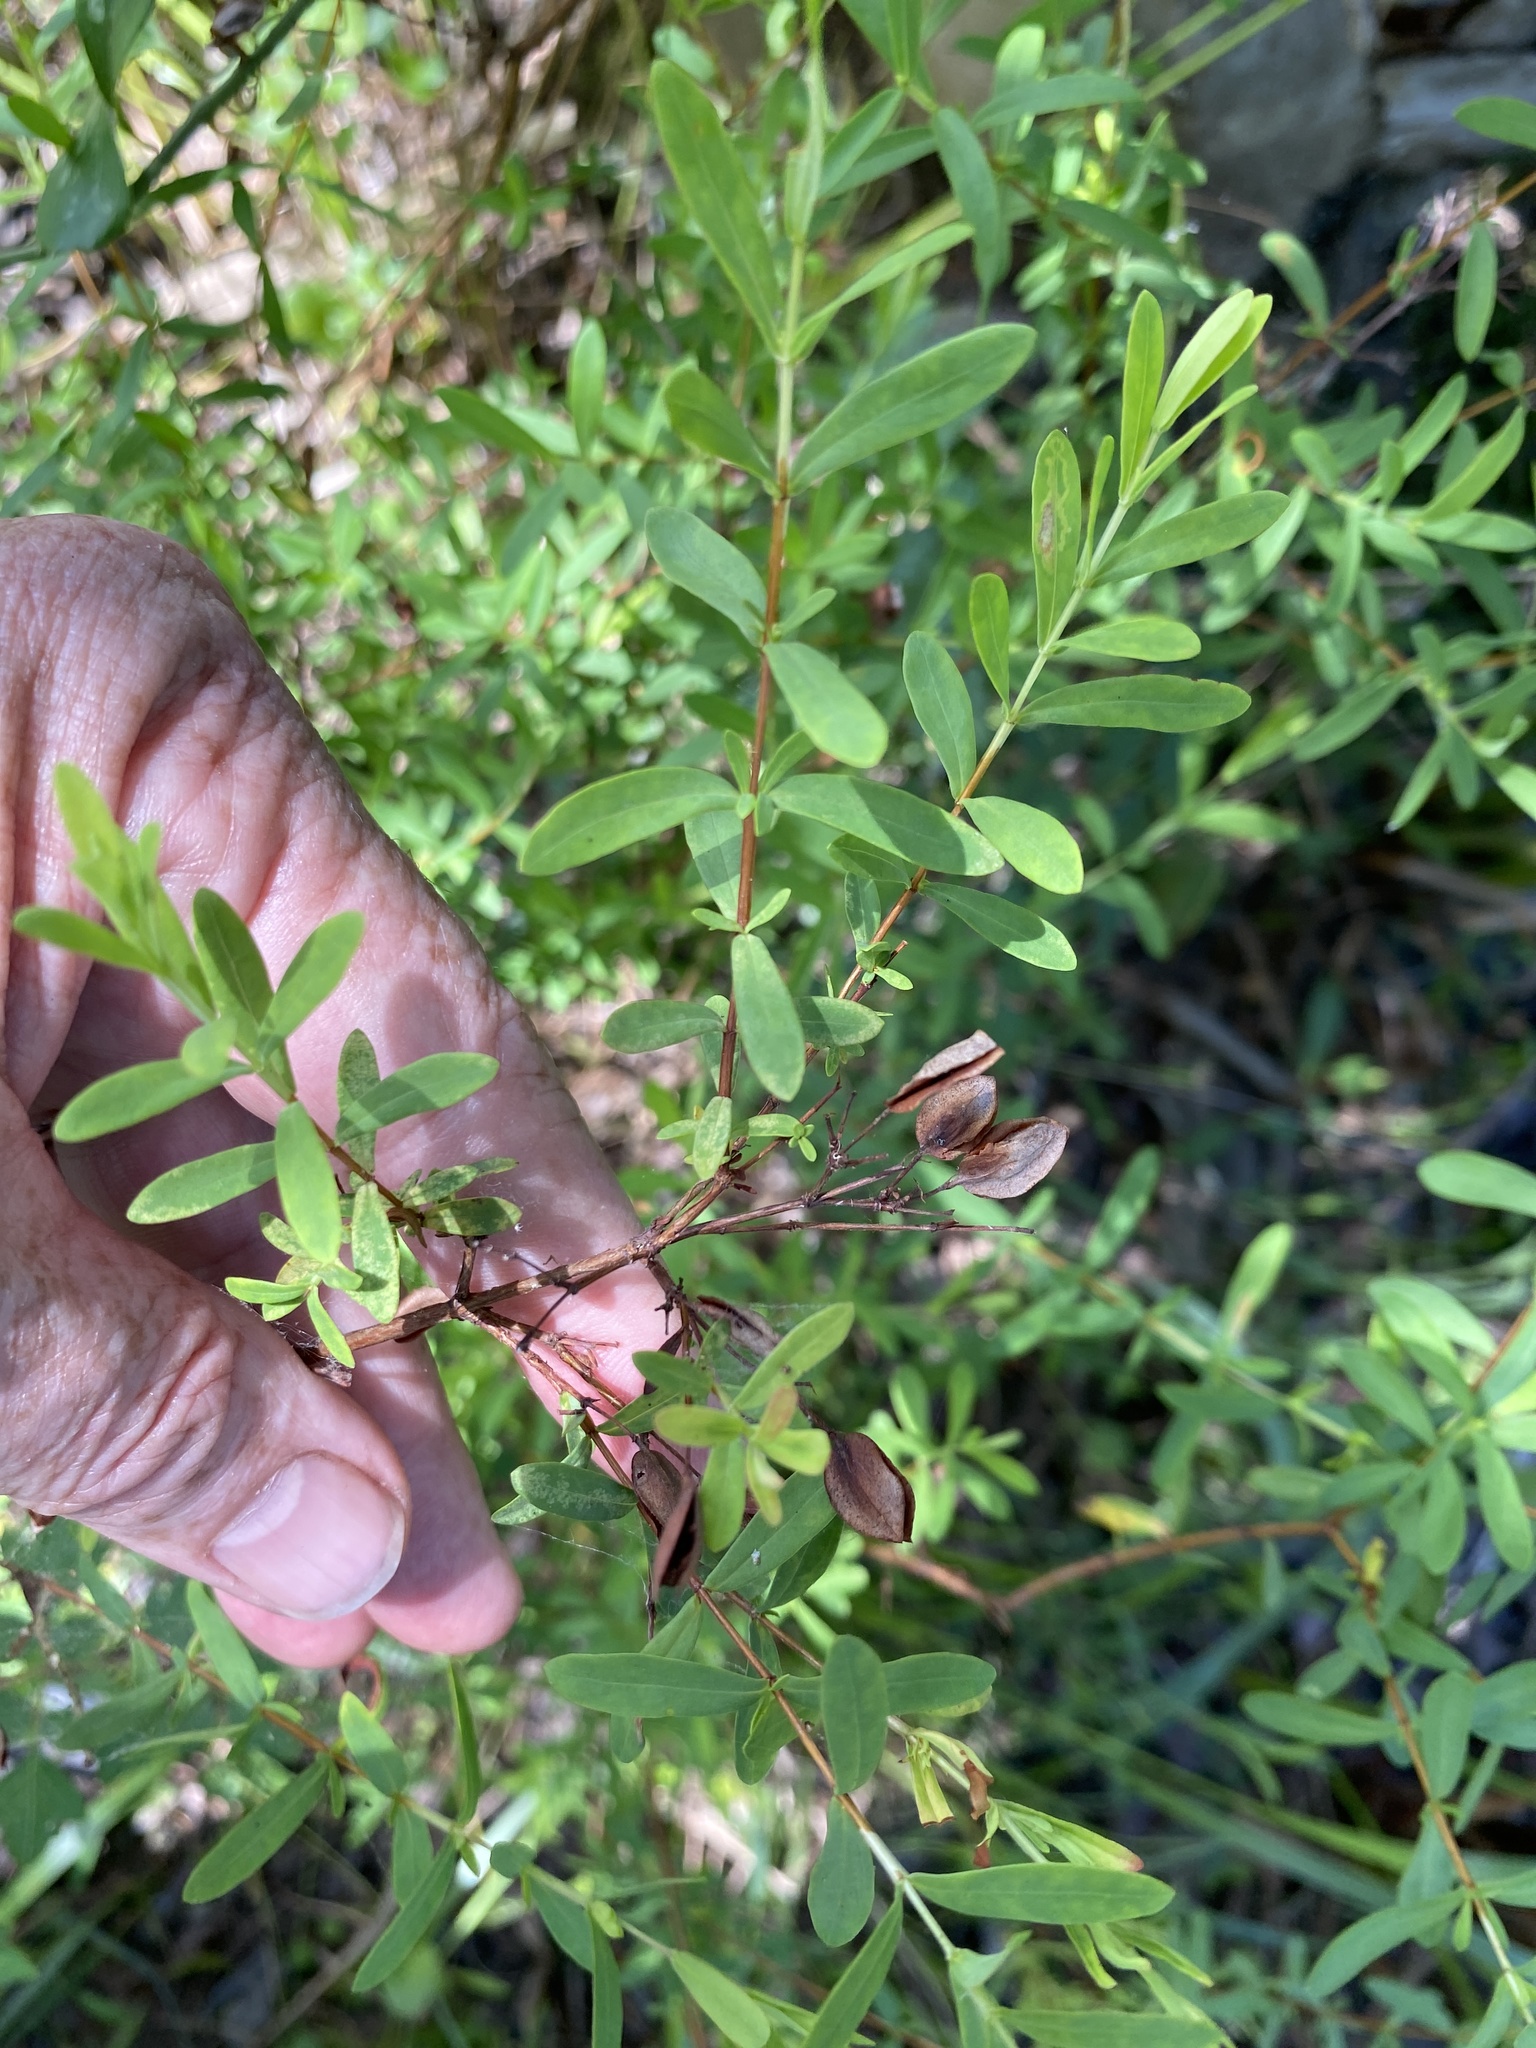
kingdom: Plantae
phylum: Tracheophyta
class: Magnoliopsida
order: Malpighiales
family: Hypericaceae
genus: Hypericum
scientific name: Hypericum hypericoides
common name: St. andrew's cross
